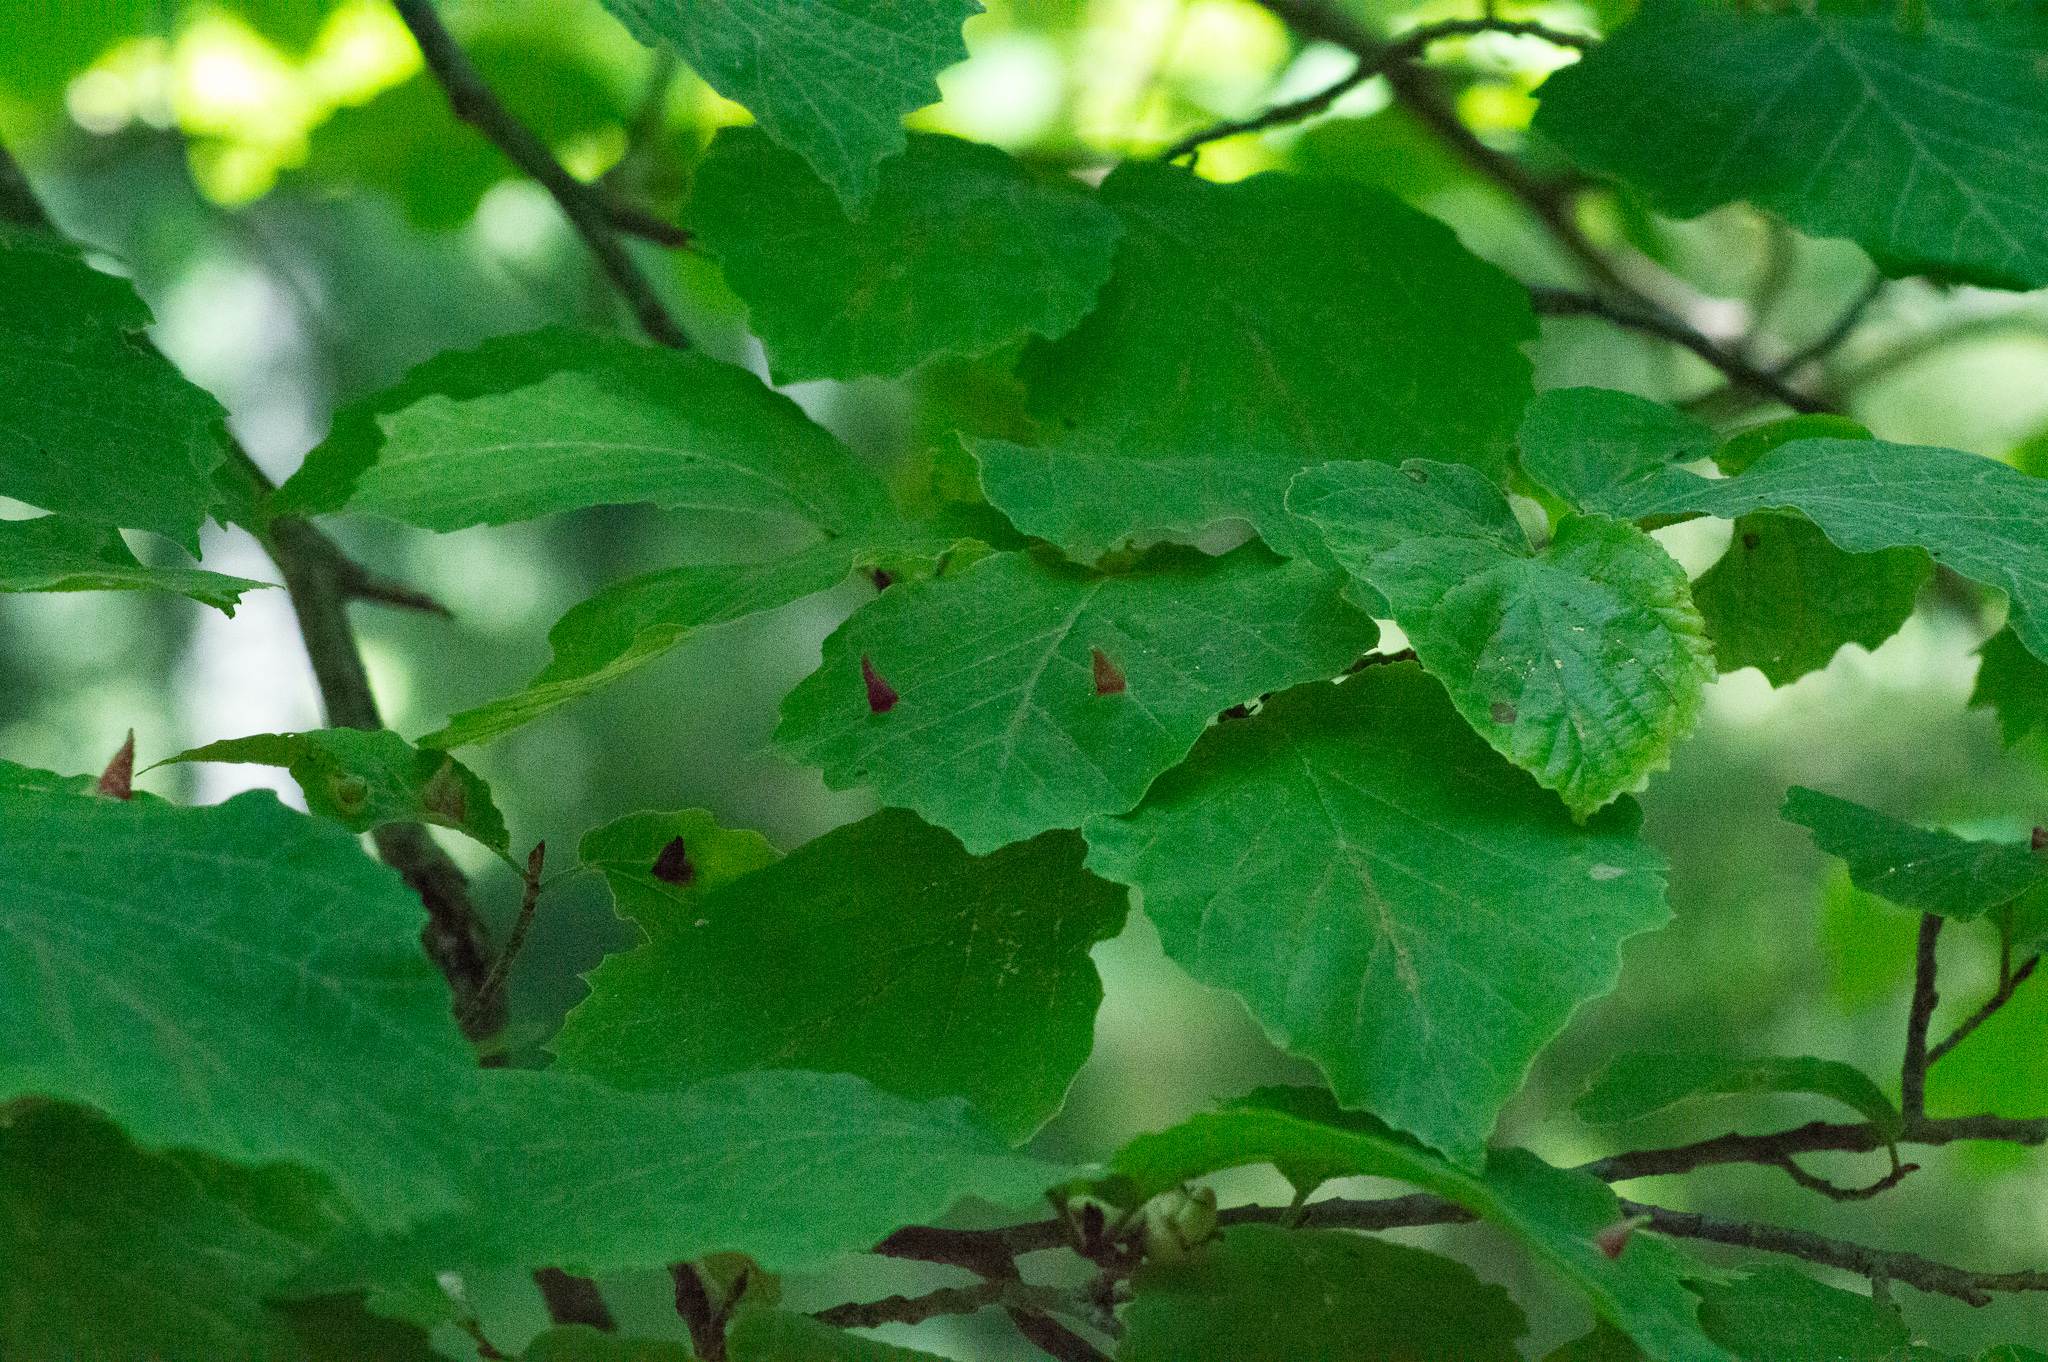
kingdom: Animalia
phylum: Arthropoda
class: Insecta
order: Hemiptera
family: Aphididae
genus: Hormaphis
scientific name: Hormaphis hamamelidis
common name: Witch-hazel cone gall aphid
